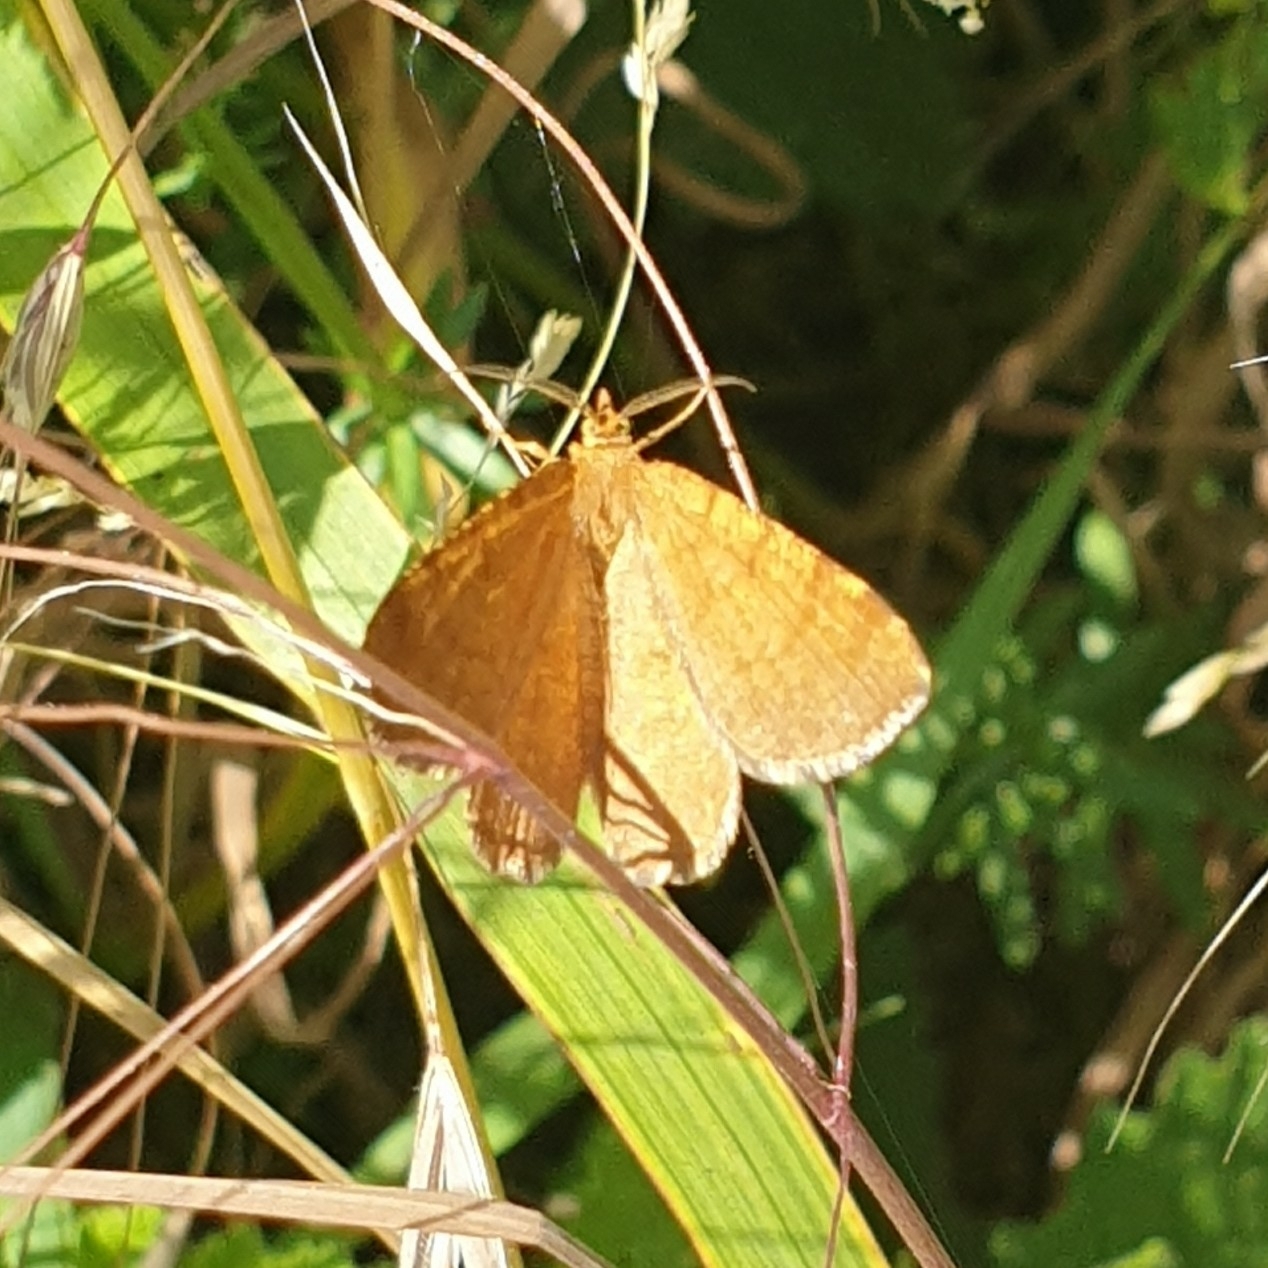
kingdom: Animalia
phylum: Arthropoda
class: Insecta
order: Lepidoptera
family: Geometridae
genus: Macaria
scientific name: Macaria brunneata
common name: Rannoch looper
